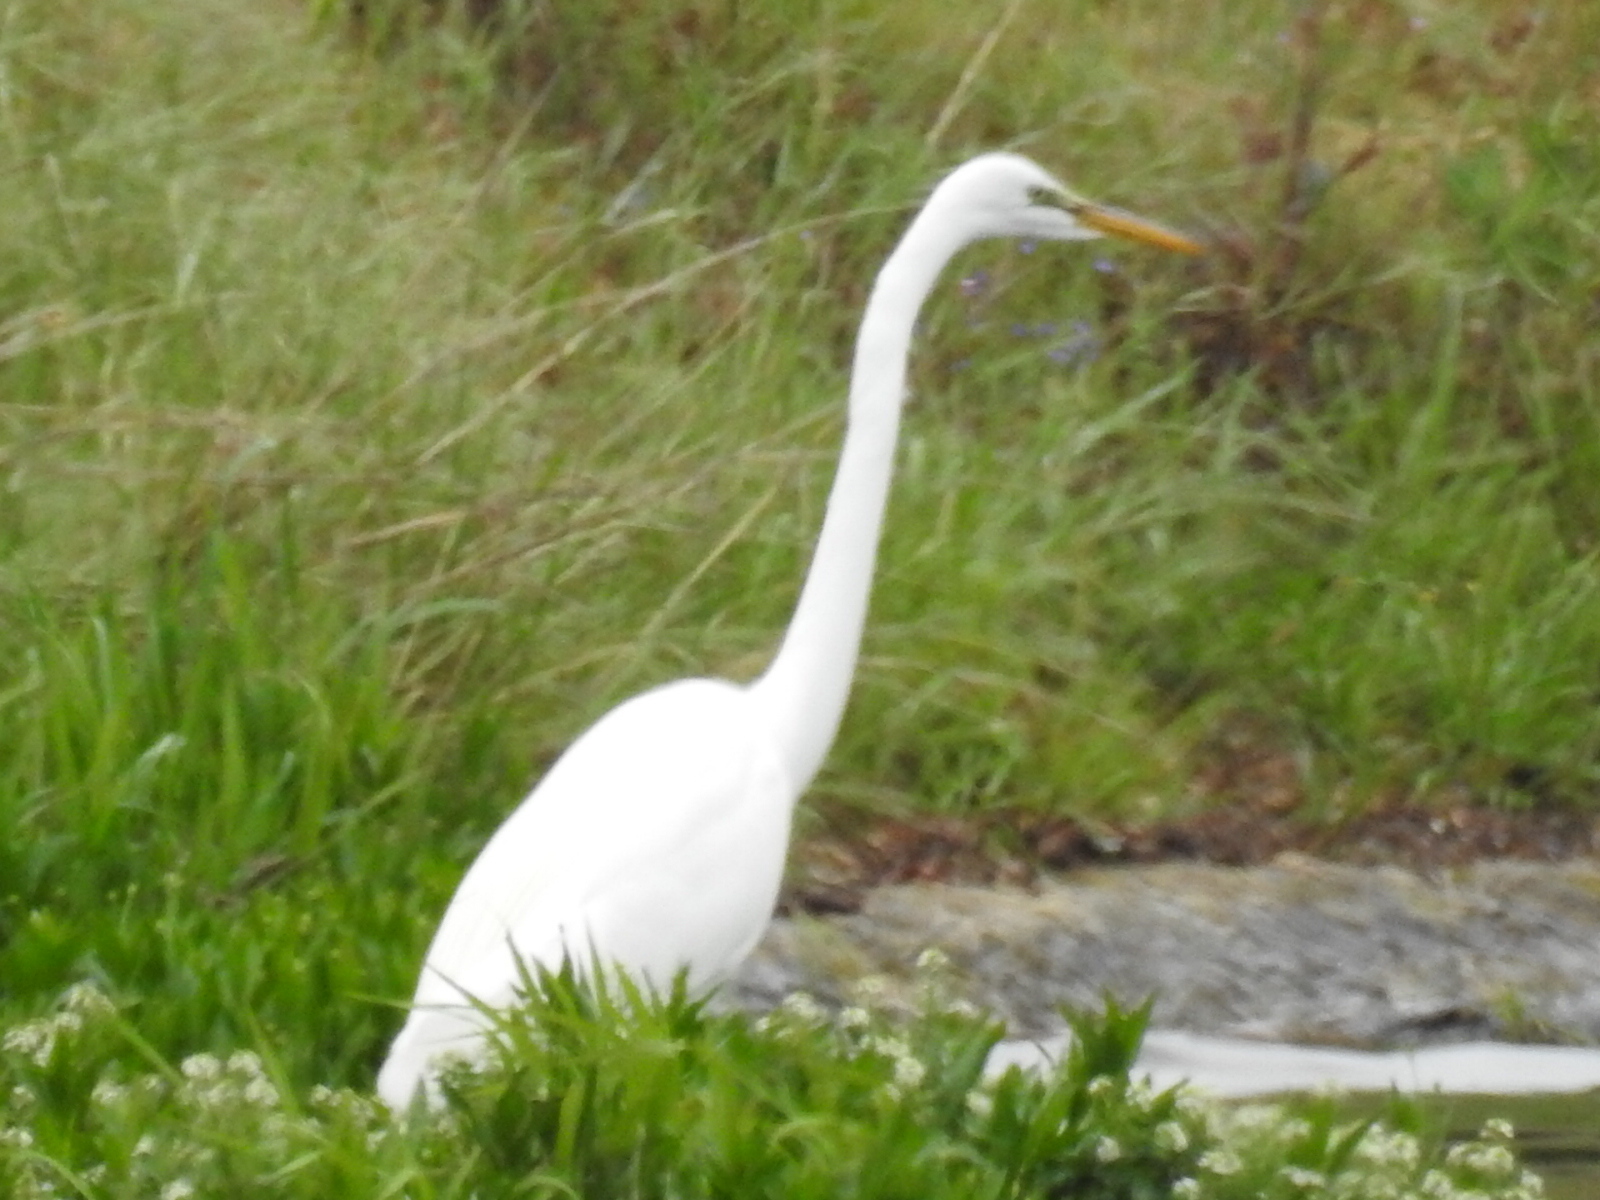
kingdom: Animalia
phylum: Chordata
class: Aves
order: Pelecaniformes
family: Ardeidae
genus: Ardea
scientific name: Ardea alba
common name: Great egret
